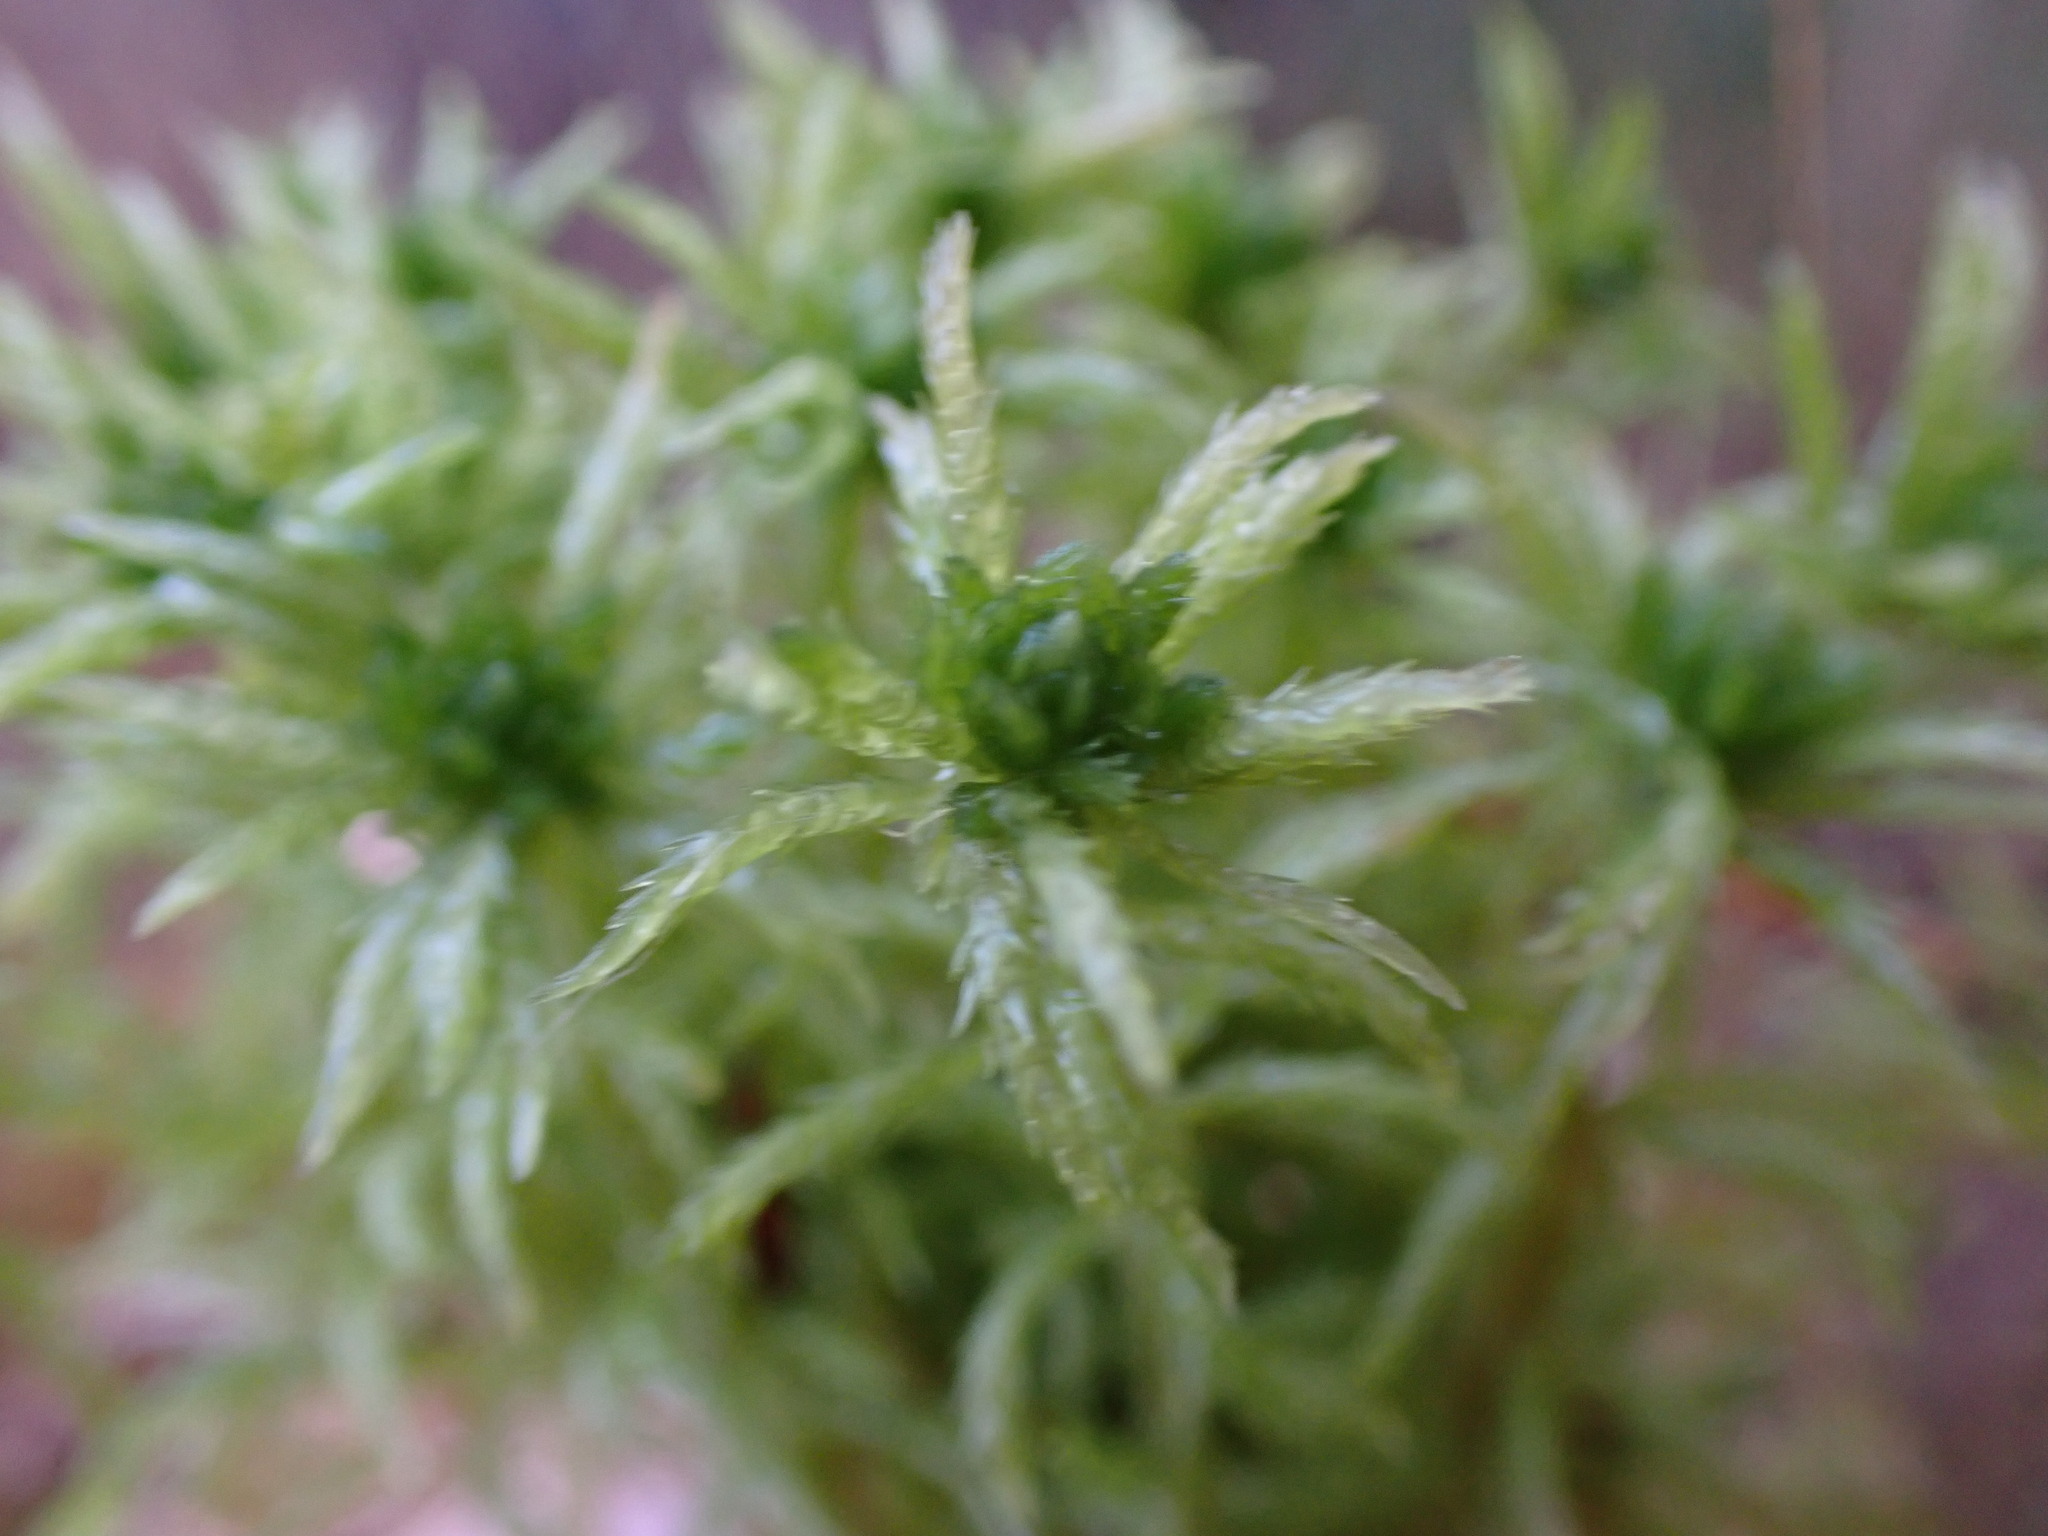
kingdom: Plantae
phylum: Bryophyta
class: Sphagnopsida
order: Sphagnales
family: Sphagnaceae
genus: Sphagnum
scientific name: Sphagnum squarrosum
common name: Shaggy peat moss
